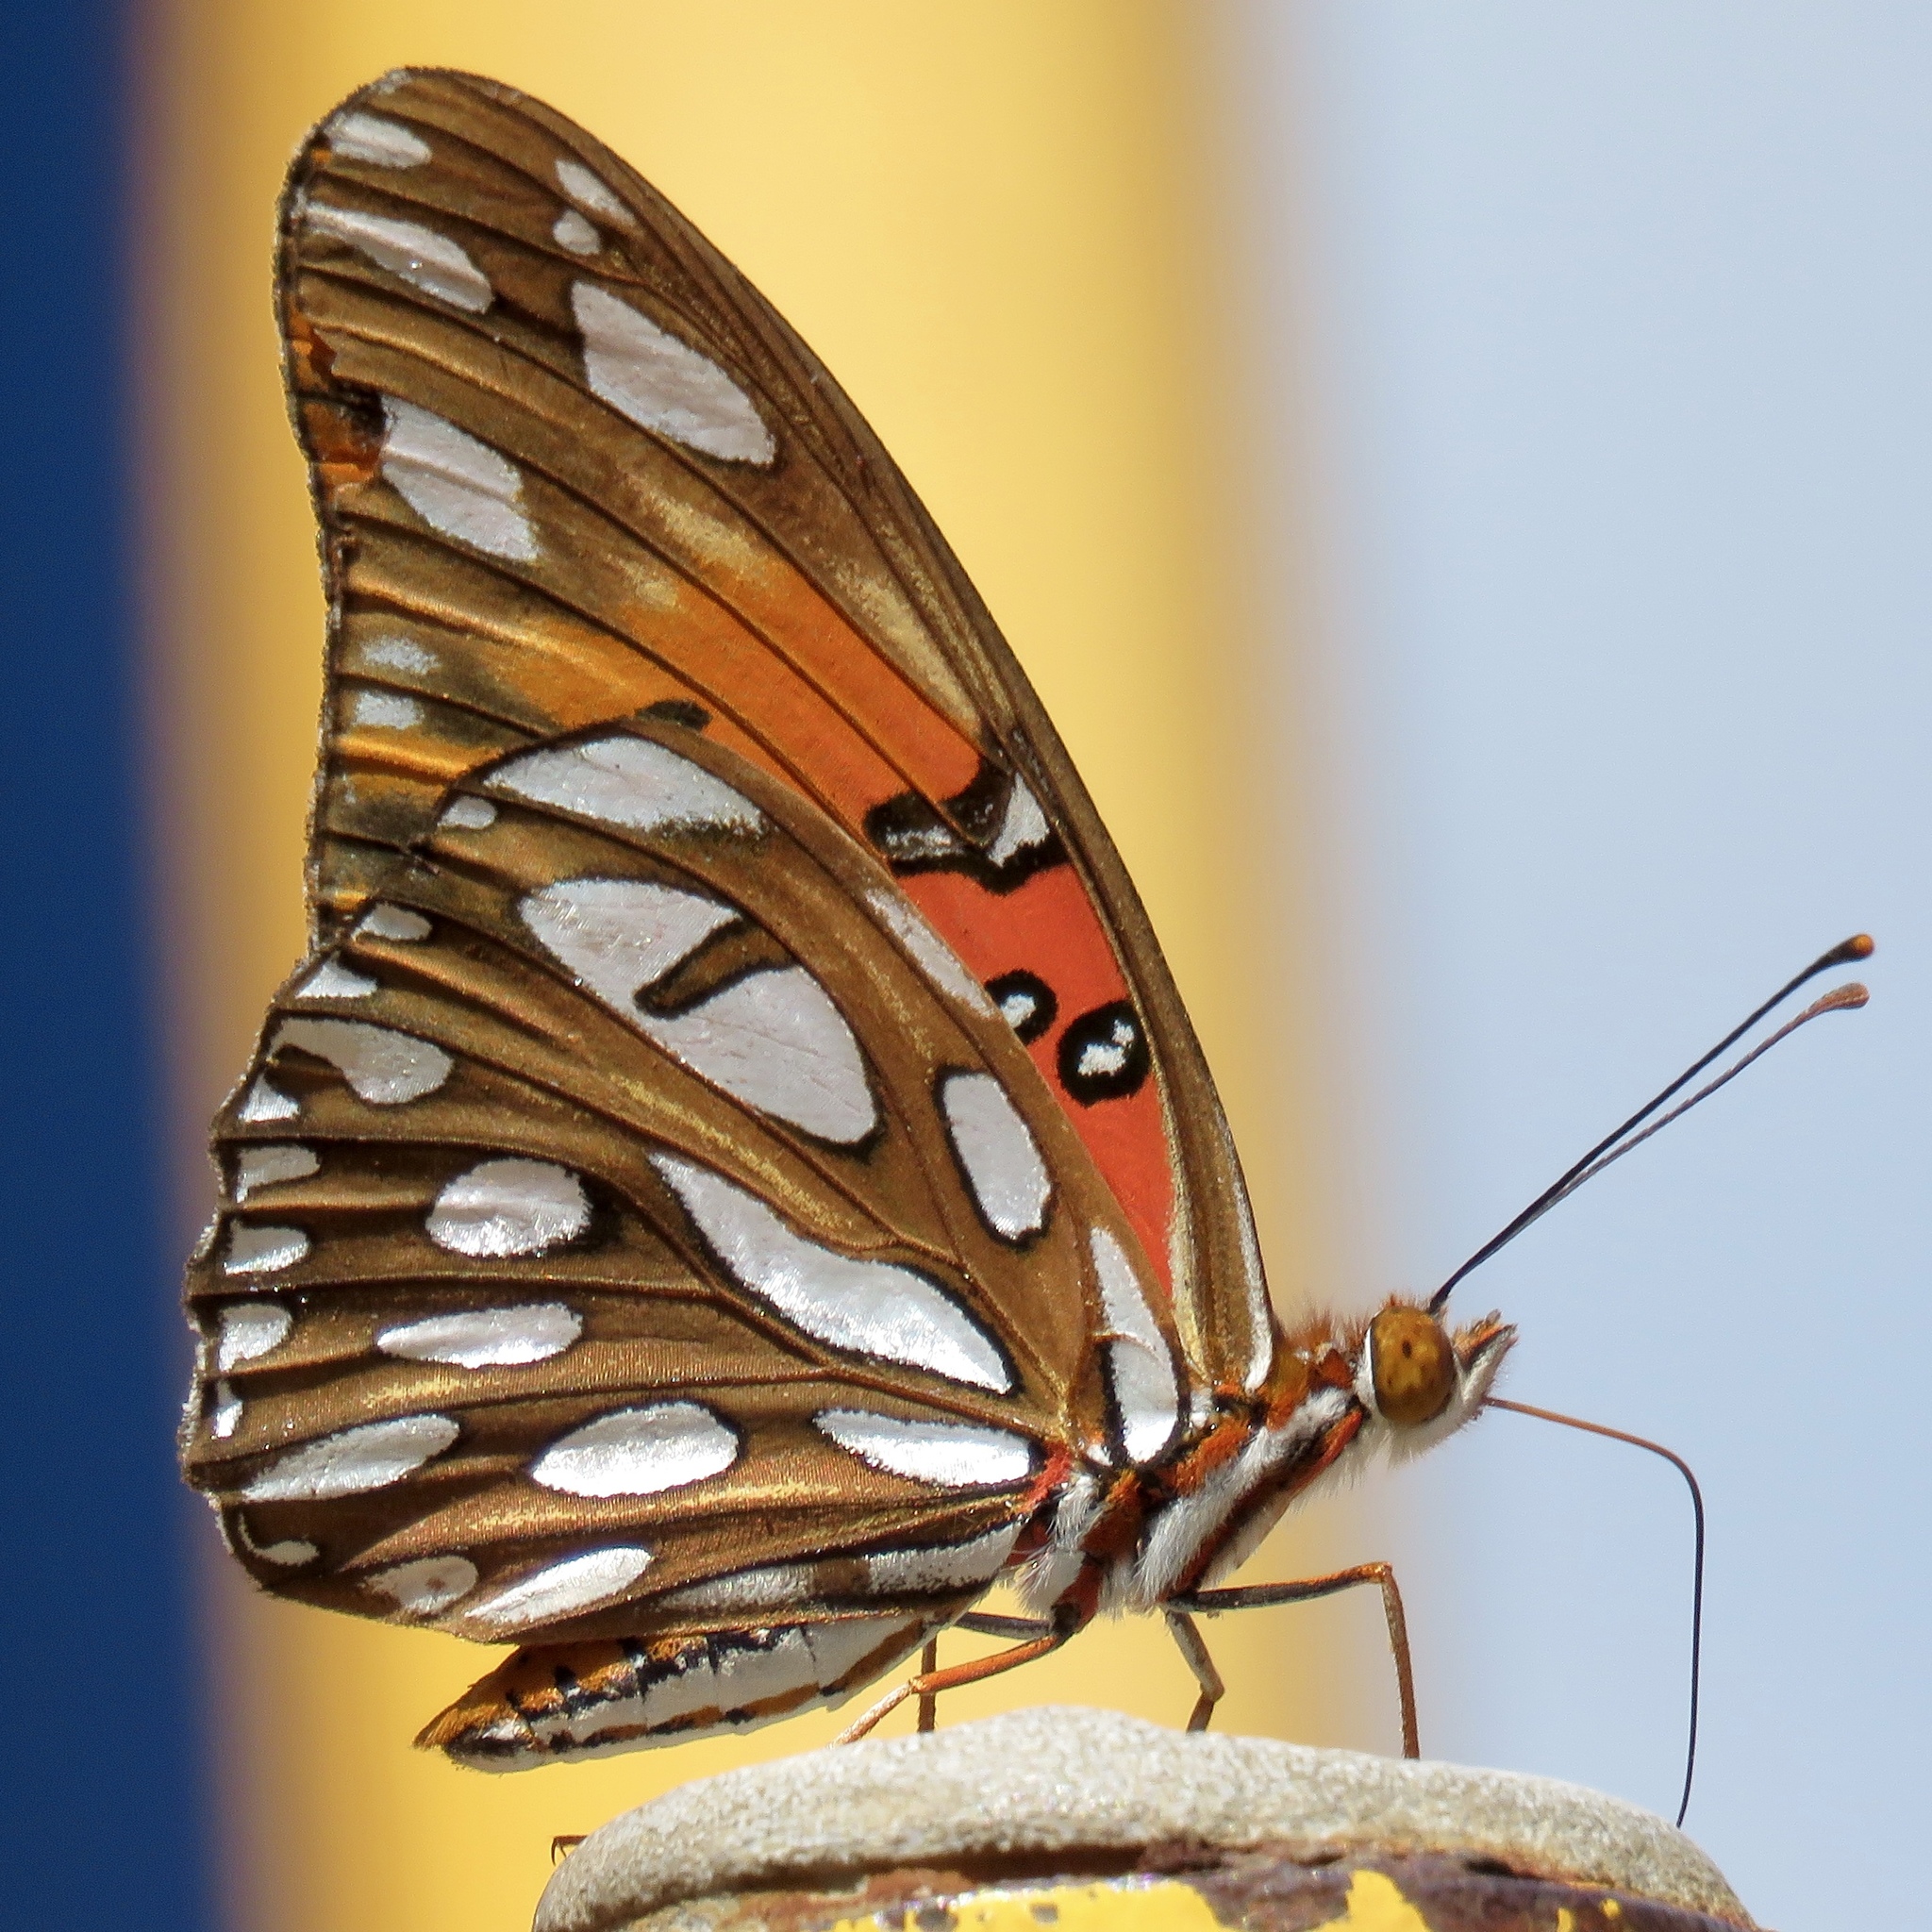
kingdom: Animalia
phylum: Arthropoda
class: Insecta
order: Lepidoptera
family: Nymphalidae
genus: Dione
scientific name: Dione vanillae
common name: Gulf fritillary
